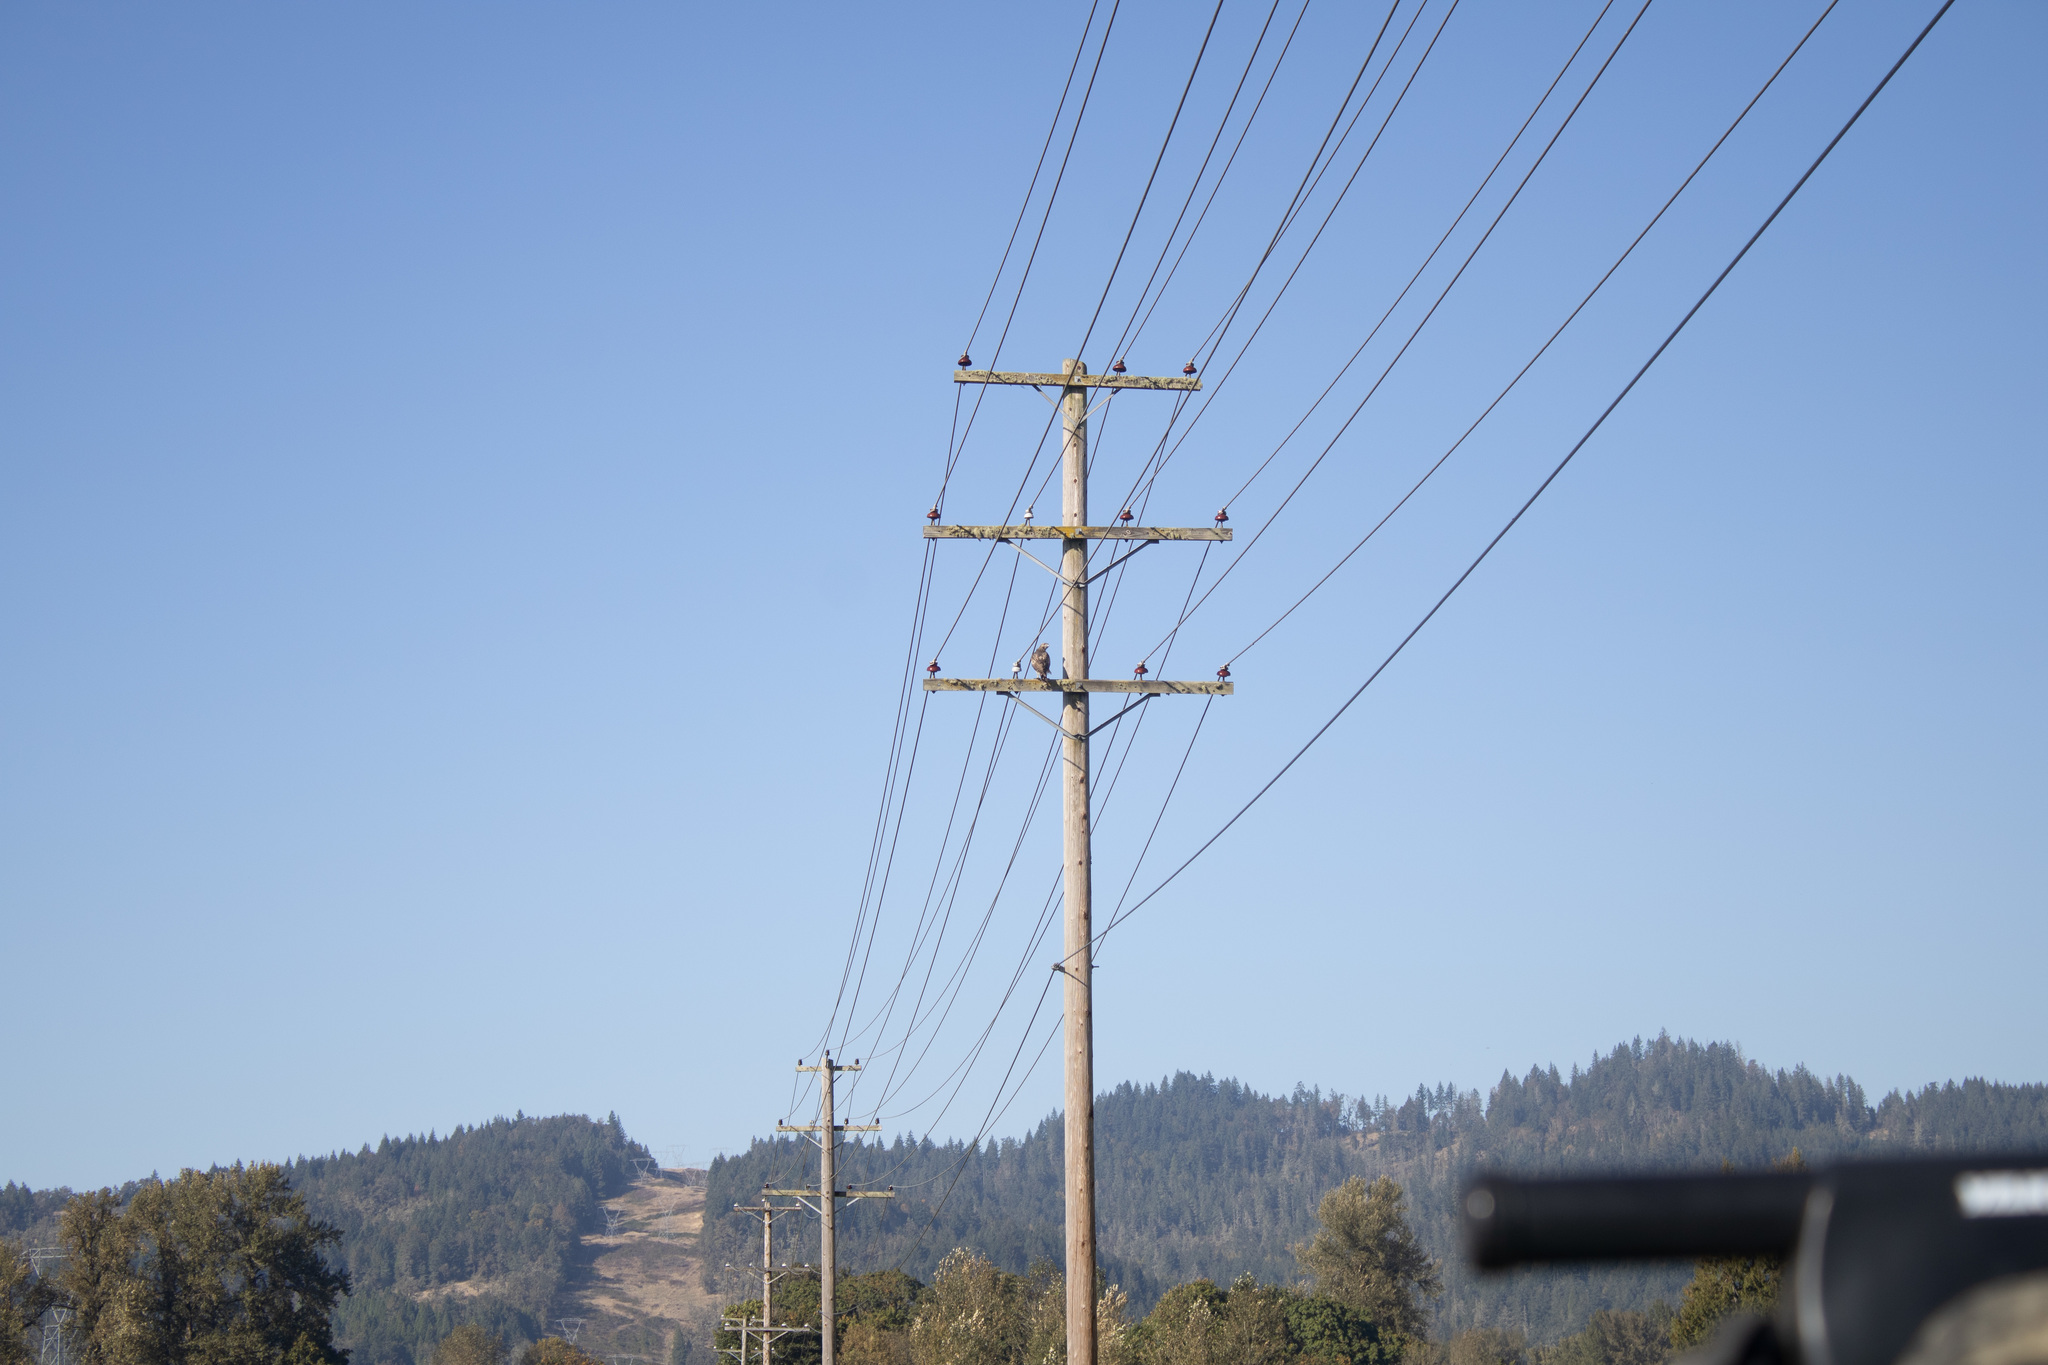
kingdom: Animalia
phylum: Chordata
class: Aves
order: Accipitriformes
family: Accipitridae
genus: Buteo
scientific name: Buteo jamaicensis
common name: Red-tailed hawk
